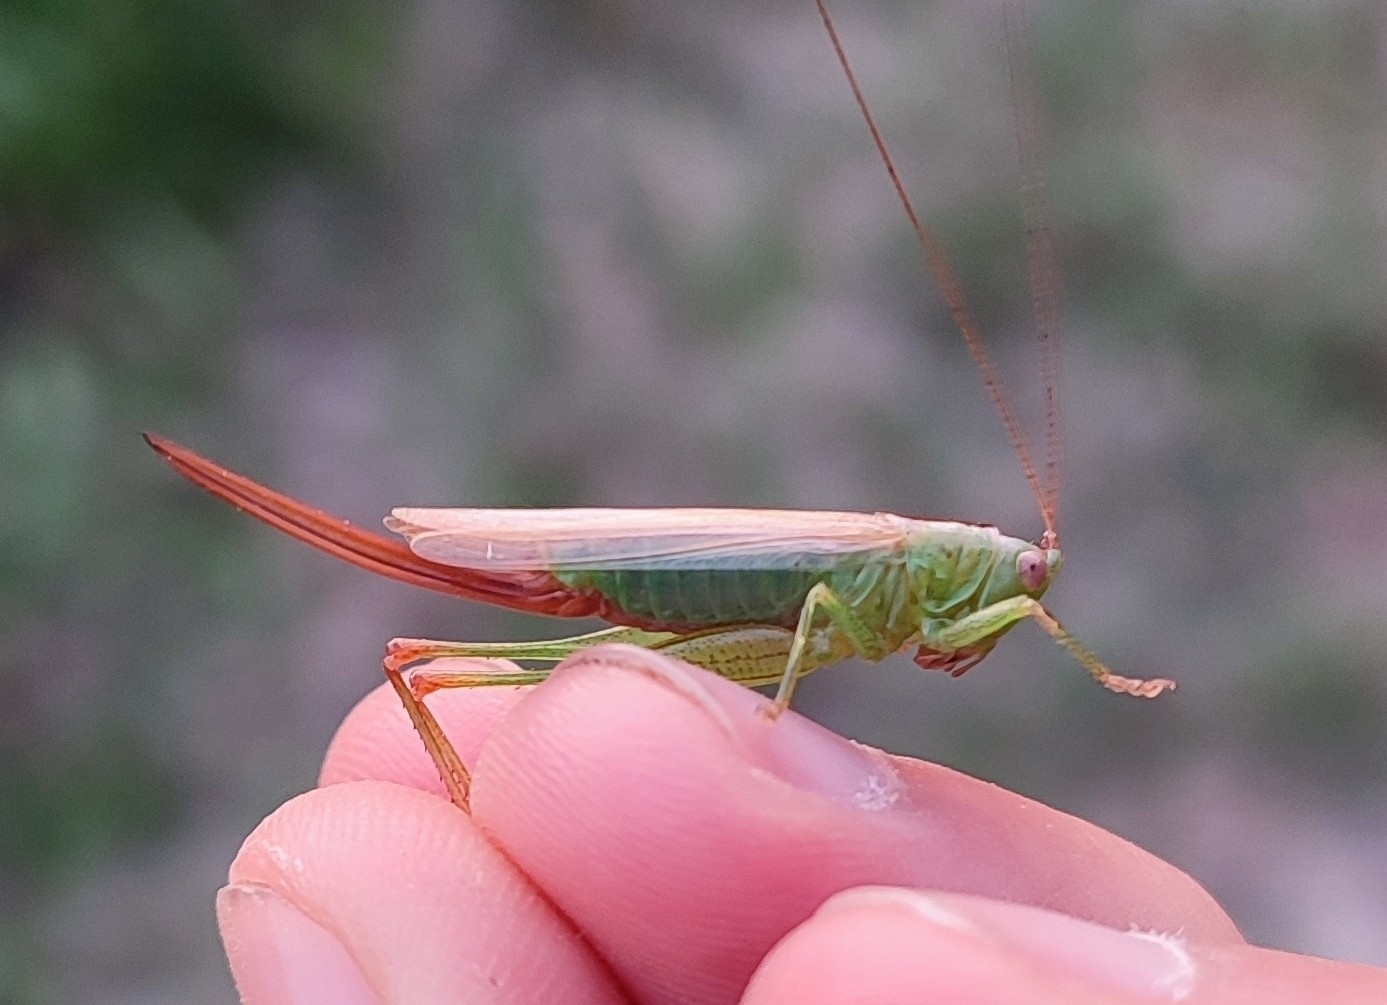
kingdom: Animalia
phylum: Arthropoda
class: Insecta
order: Orthoptera
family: Tettigoniidae
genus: Conocephalus
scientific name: Conocephalus fuscus
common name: Long-winged conehead
